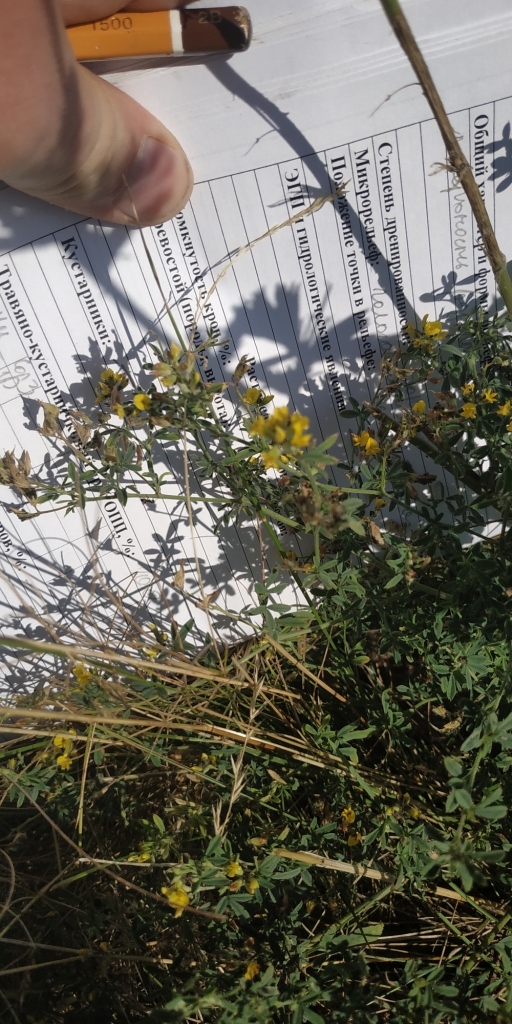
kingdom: Plantae
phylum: Tracheophyta
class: Magnoliopsida
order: Fabales
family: Fabaceae
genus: Medicago
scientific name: Medicago falcata
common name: Sickle medick
